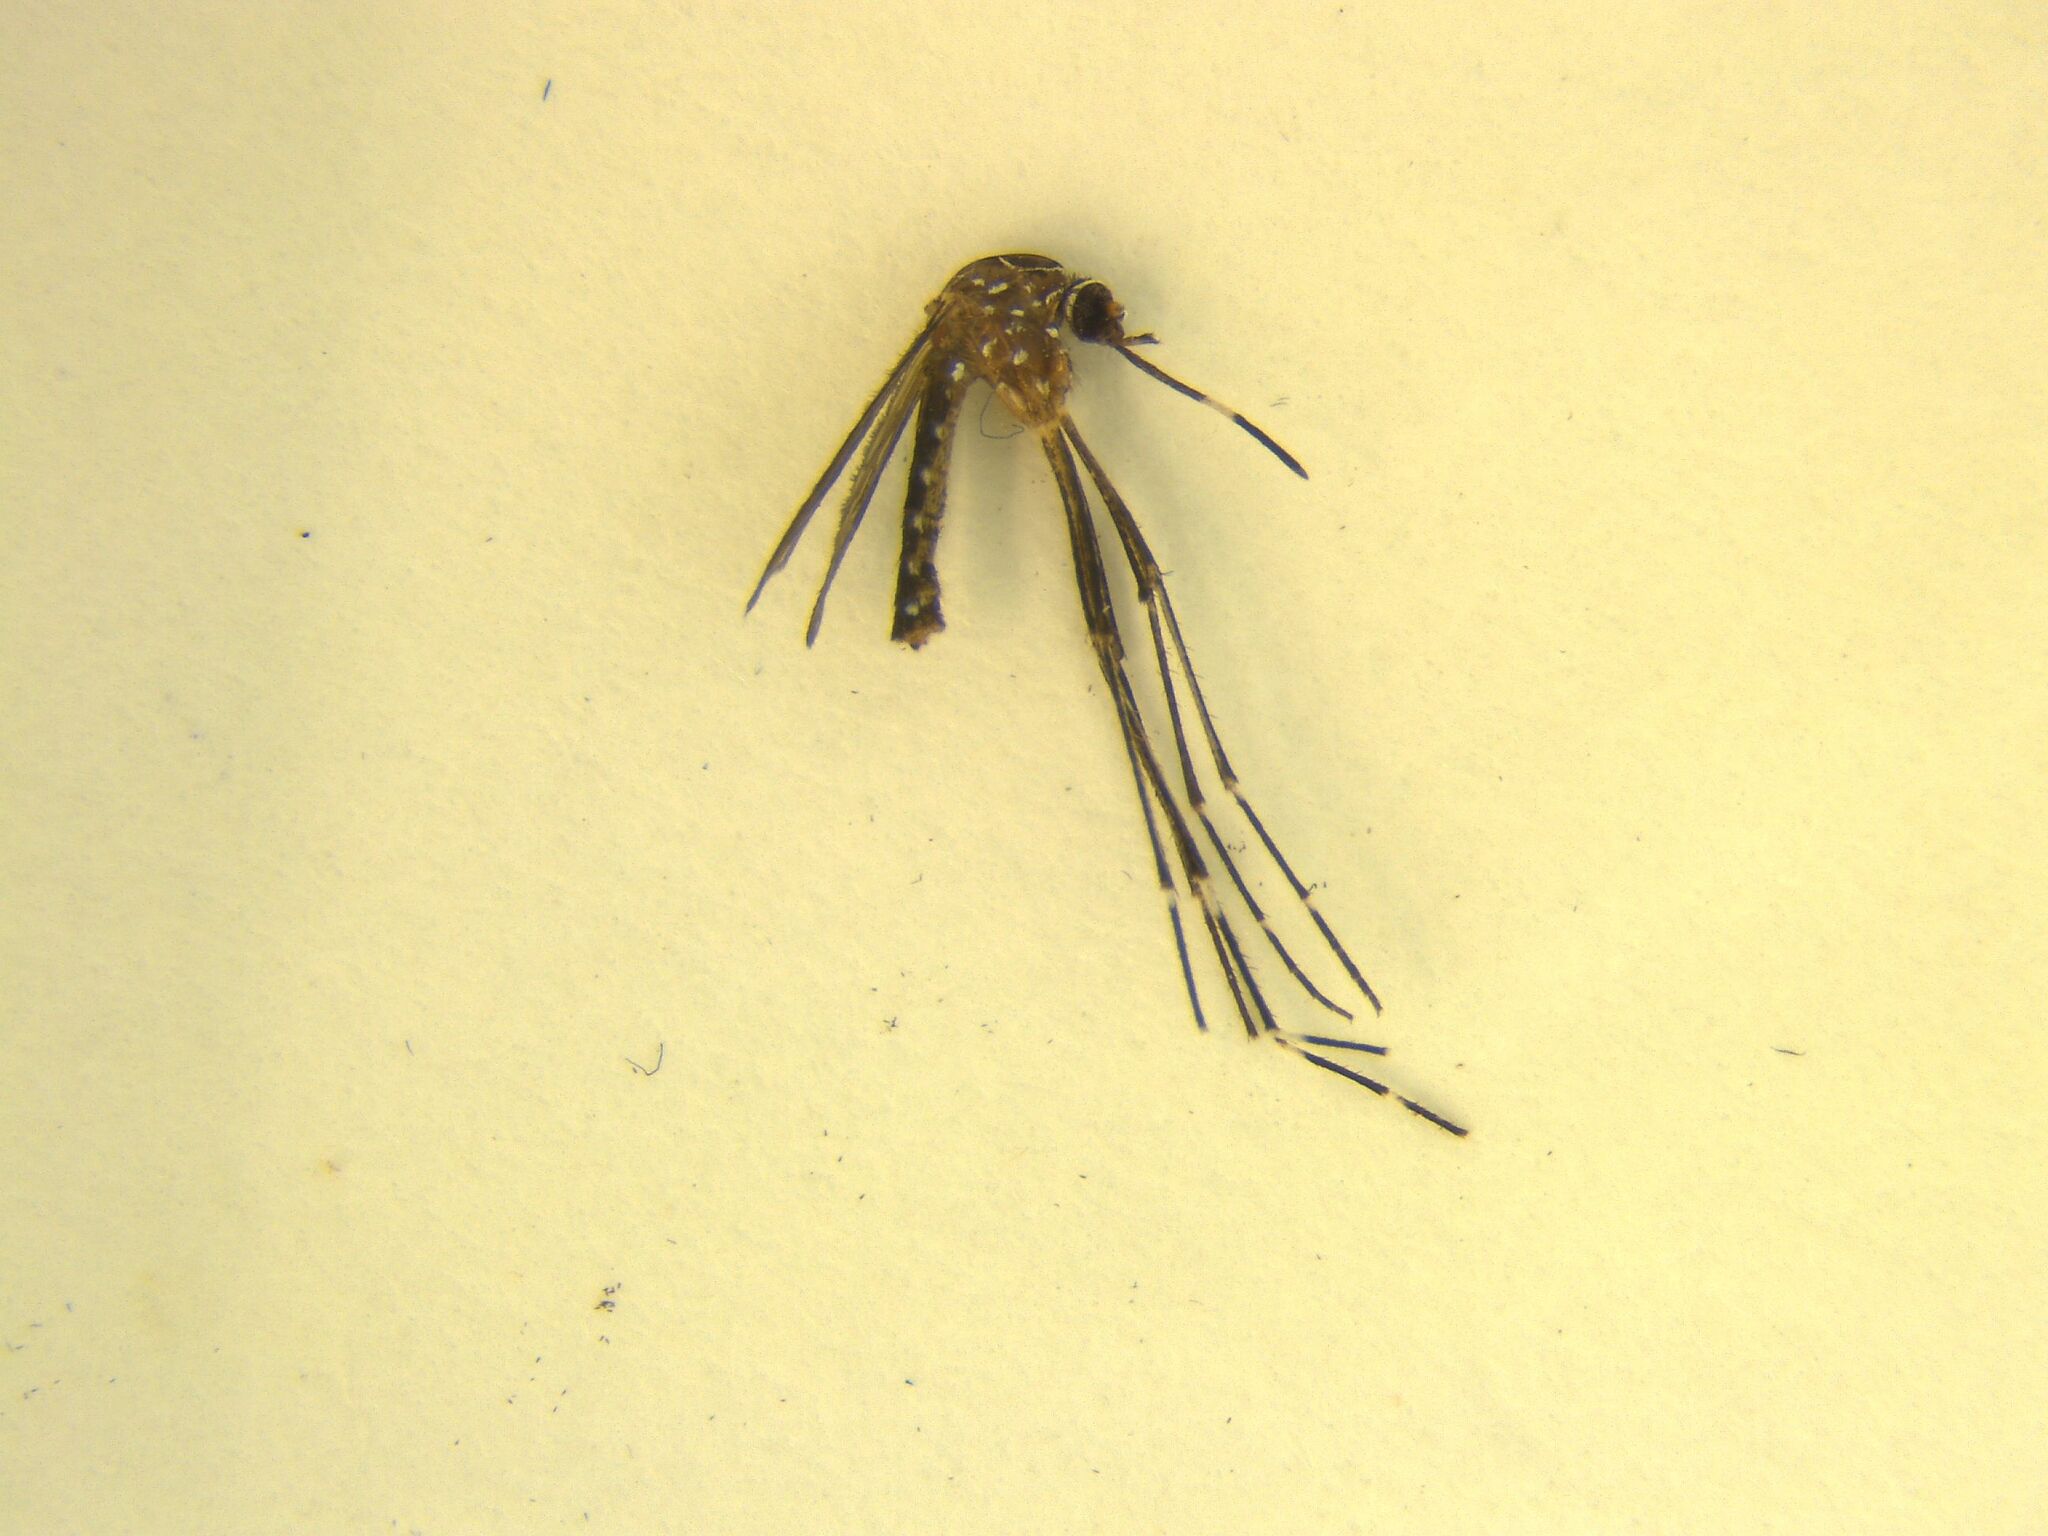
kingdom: Animalia
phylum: Arthropoda
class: Insecta
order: Diptera
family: Culicidae
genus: Aedes
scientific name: Aedes notoscriptus
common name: Australian backyard mosquito
